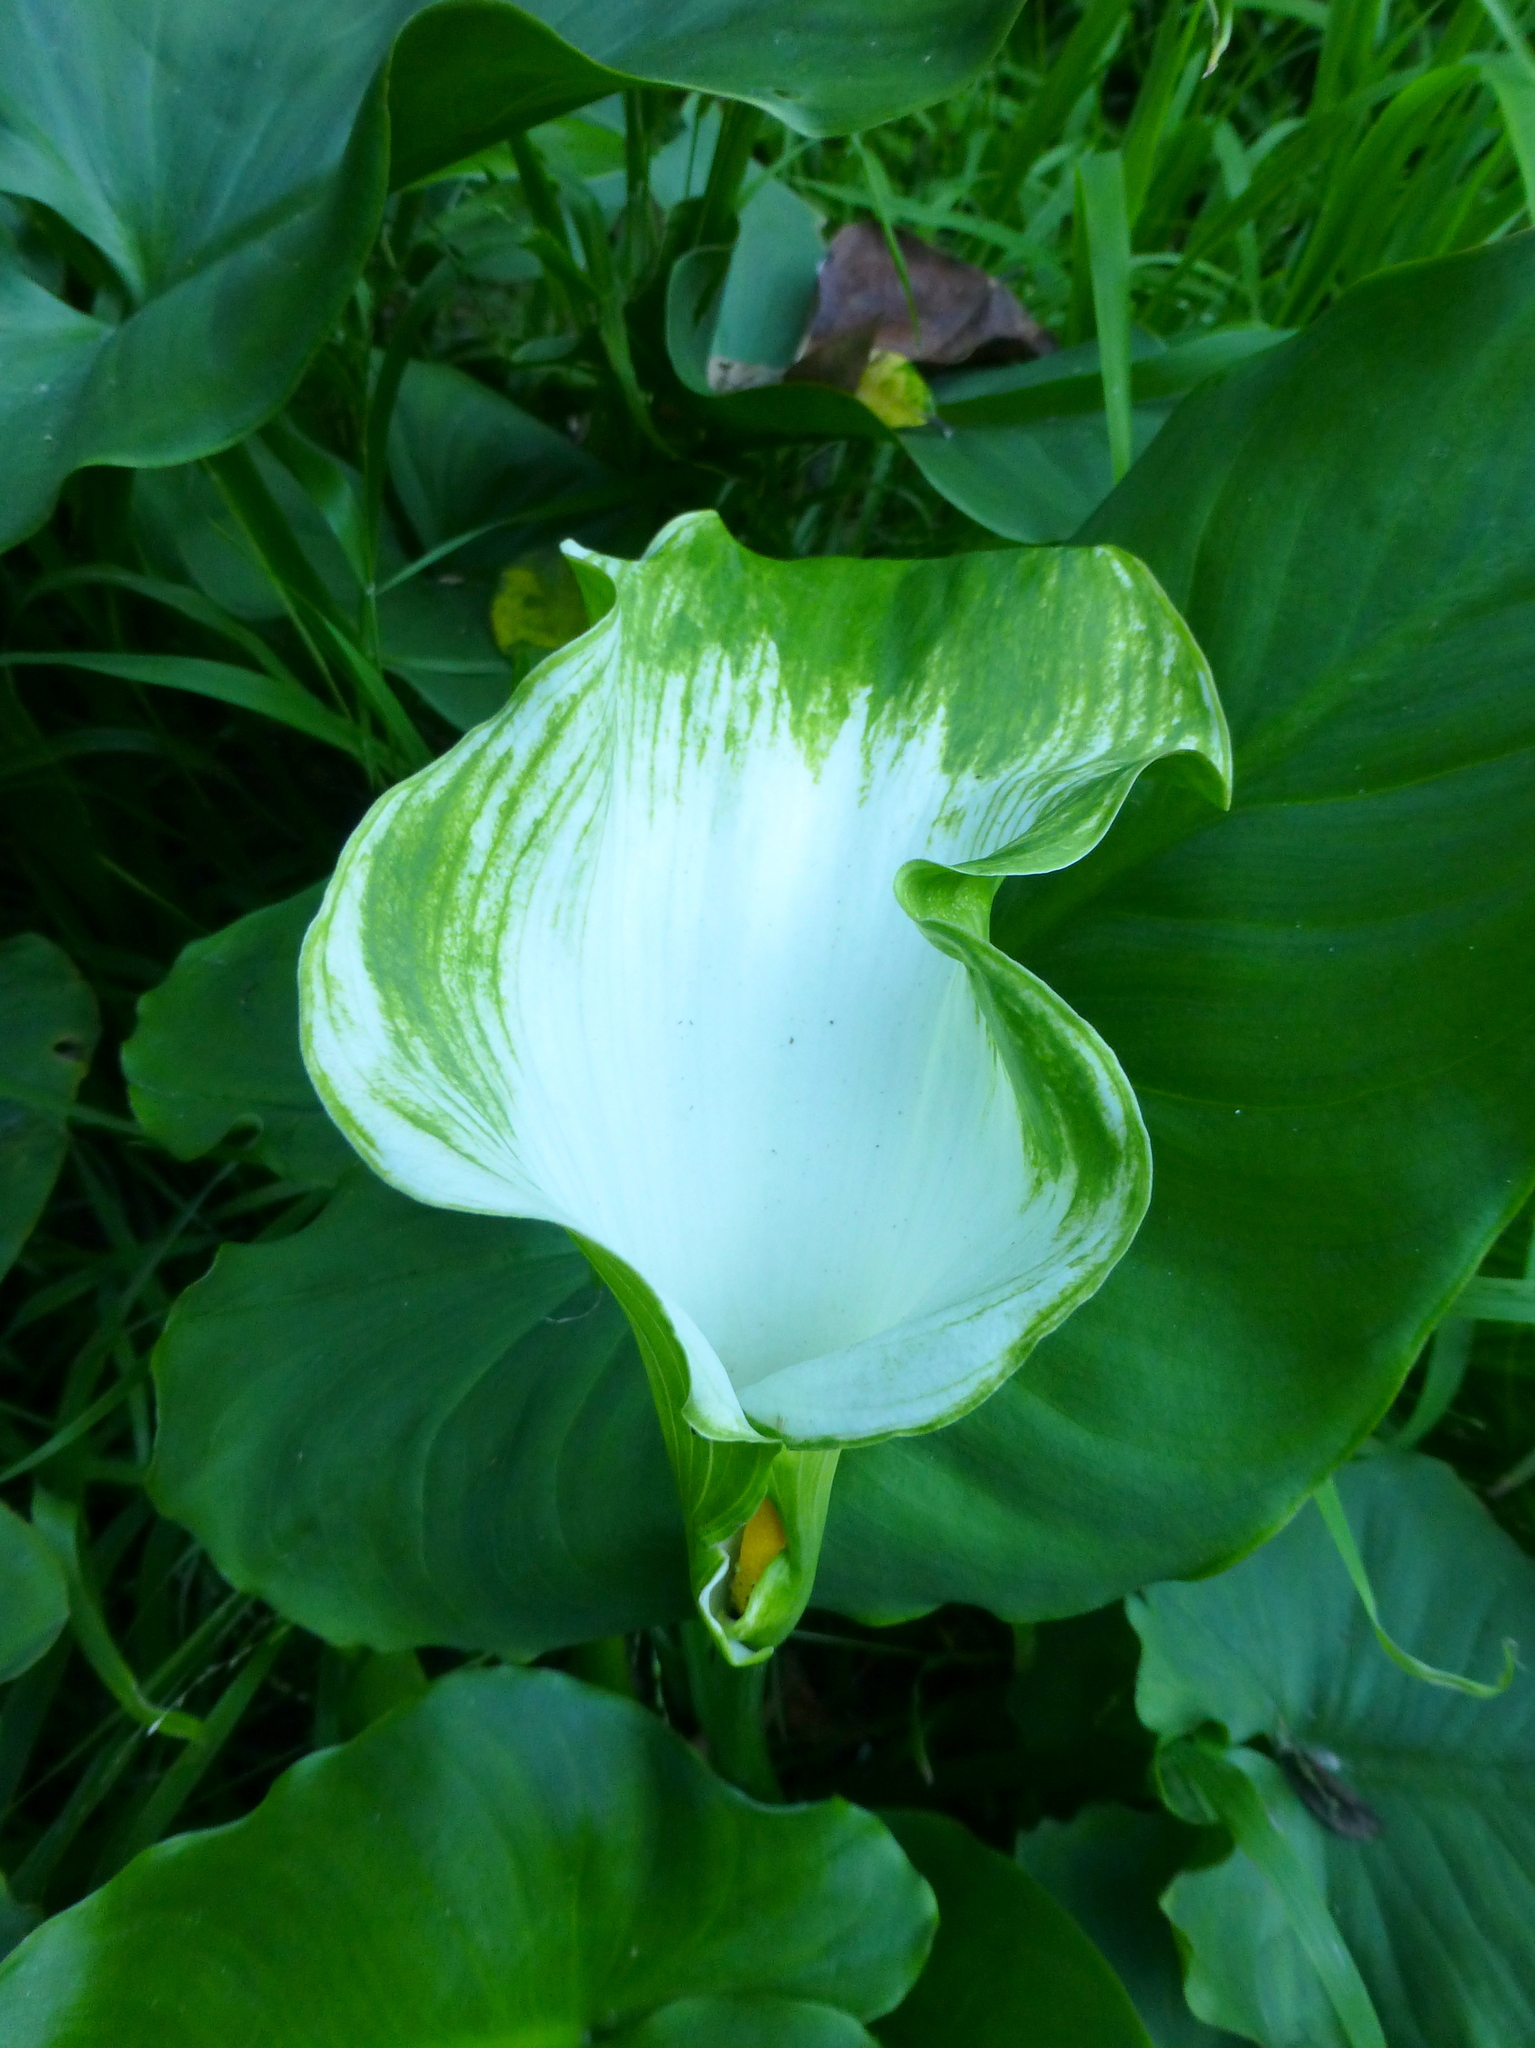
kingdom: Plantae
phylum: Tracheophyta
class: Liliopsida
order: Alismatales
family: Araceae
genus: Zantedeschia
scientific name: Zantedeschia aethiopica
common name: Altar-lily
